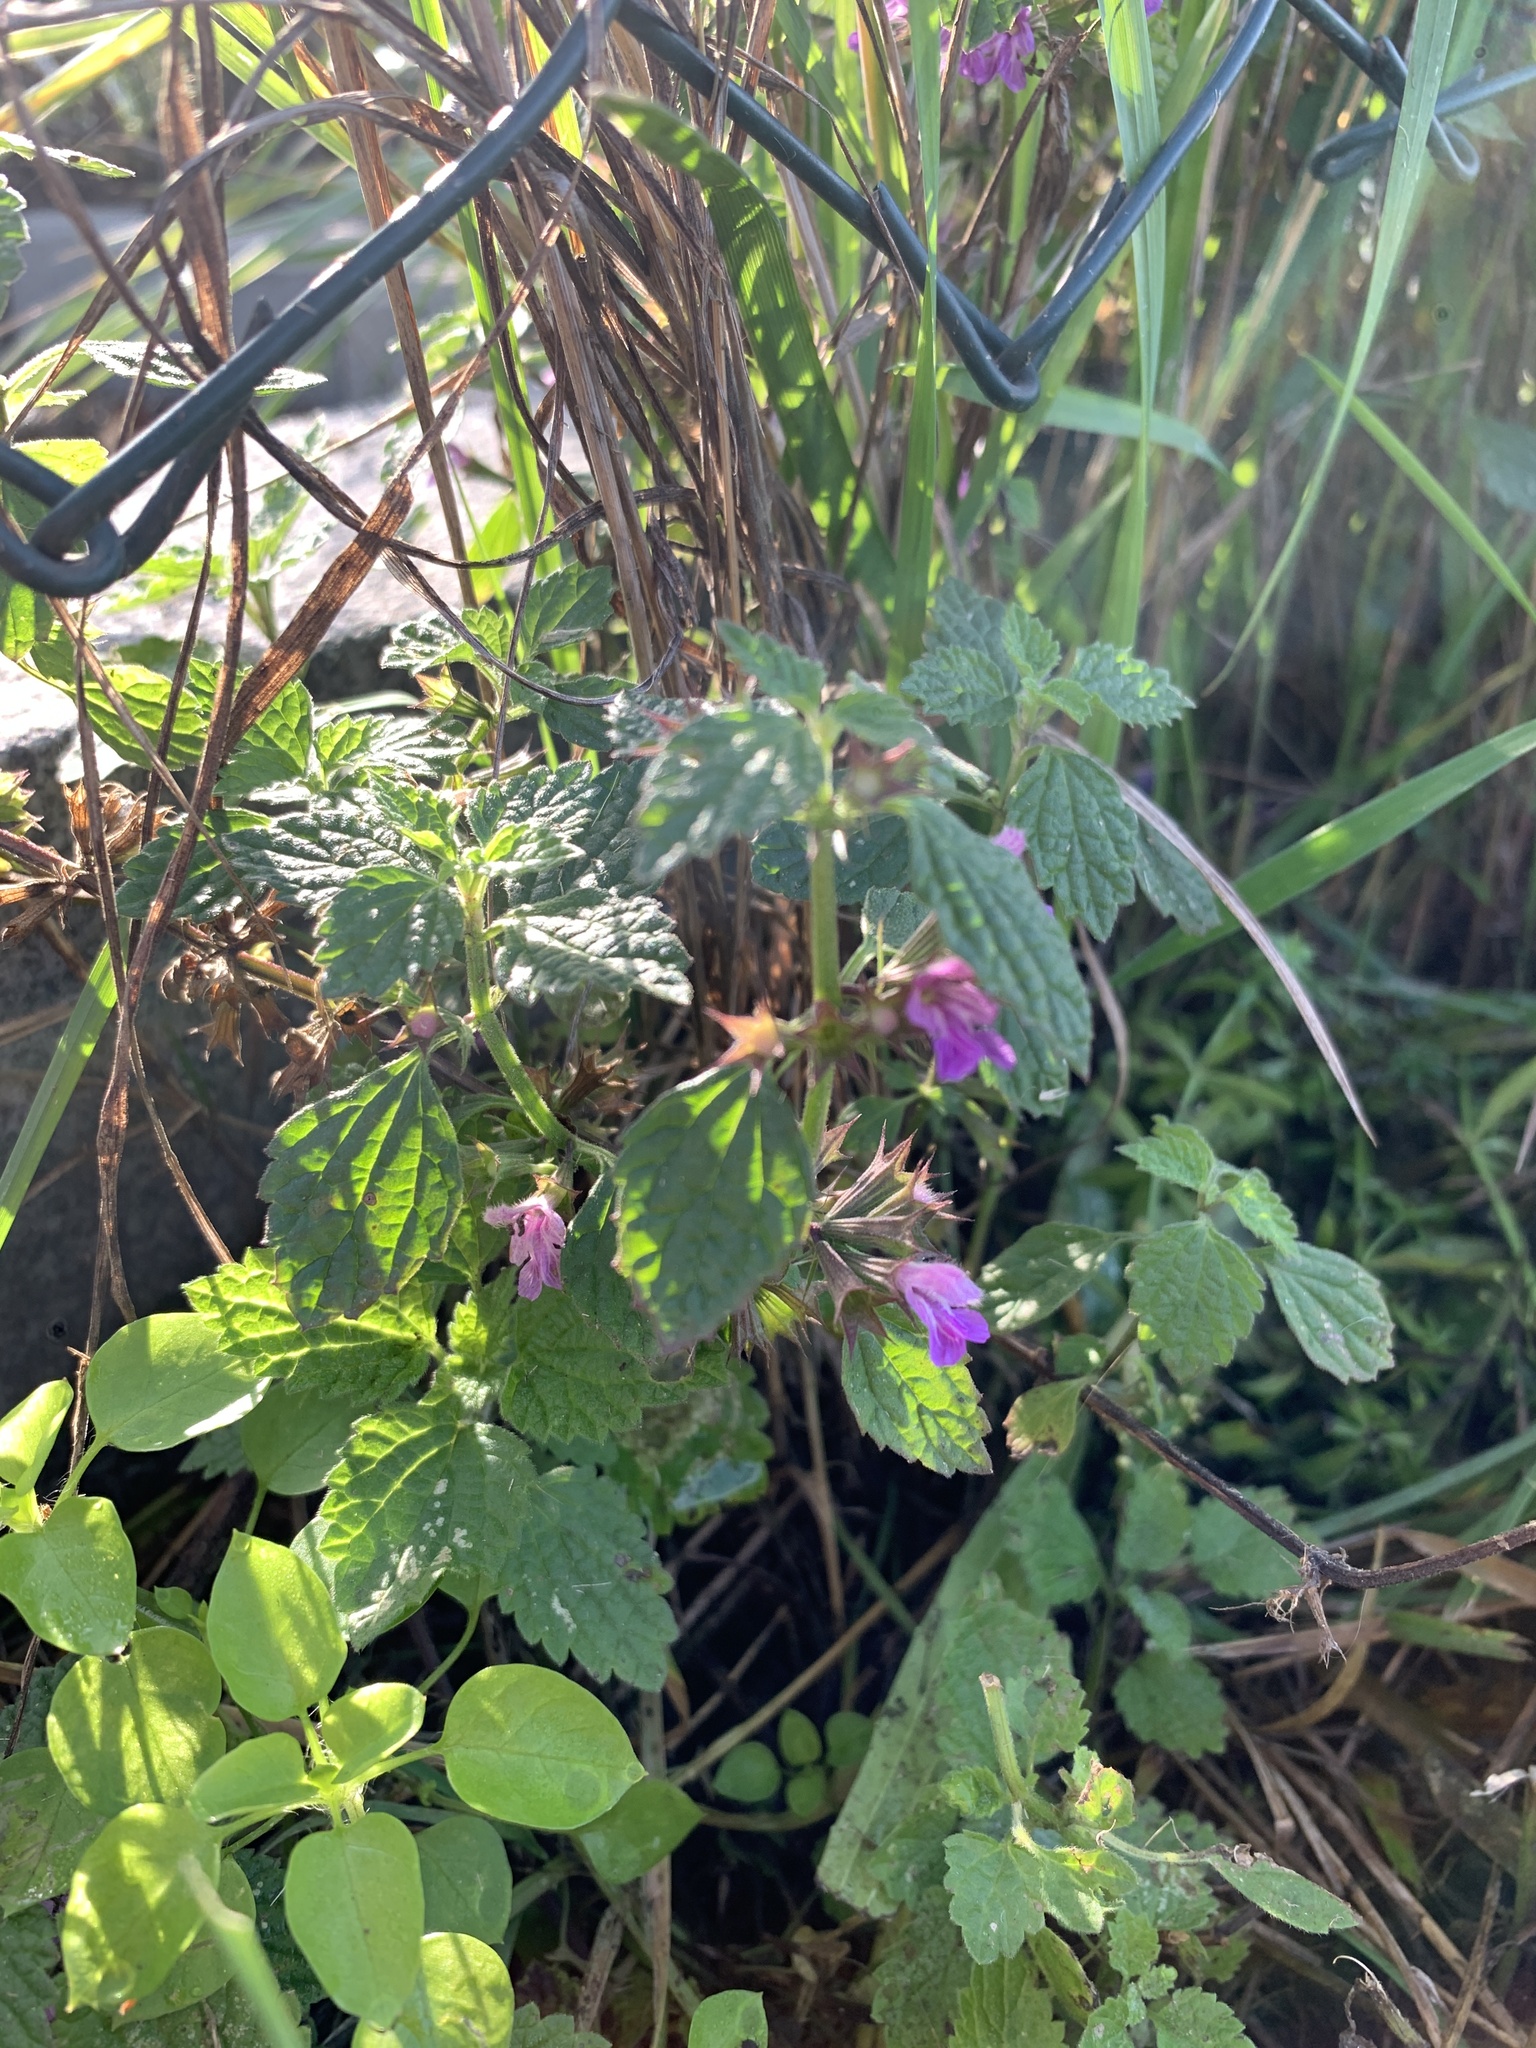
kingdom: Plantae
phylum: Tracheophyta
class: Magnoliopsida
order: Lamiales
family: Lamiaceae
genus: Ballota
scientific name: Ballota nigra
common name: Black horehound
